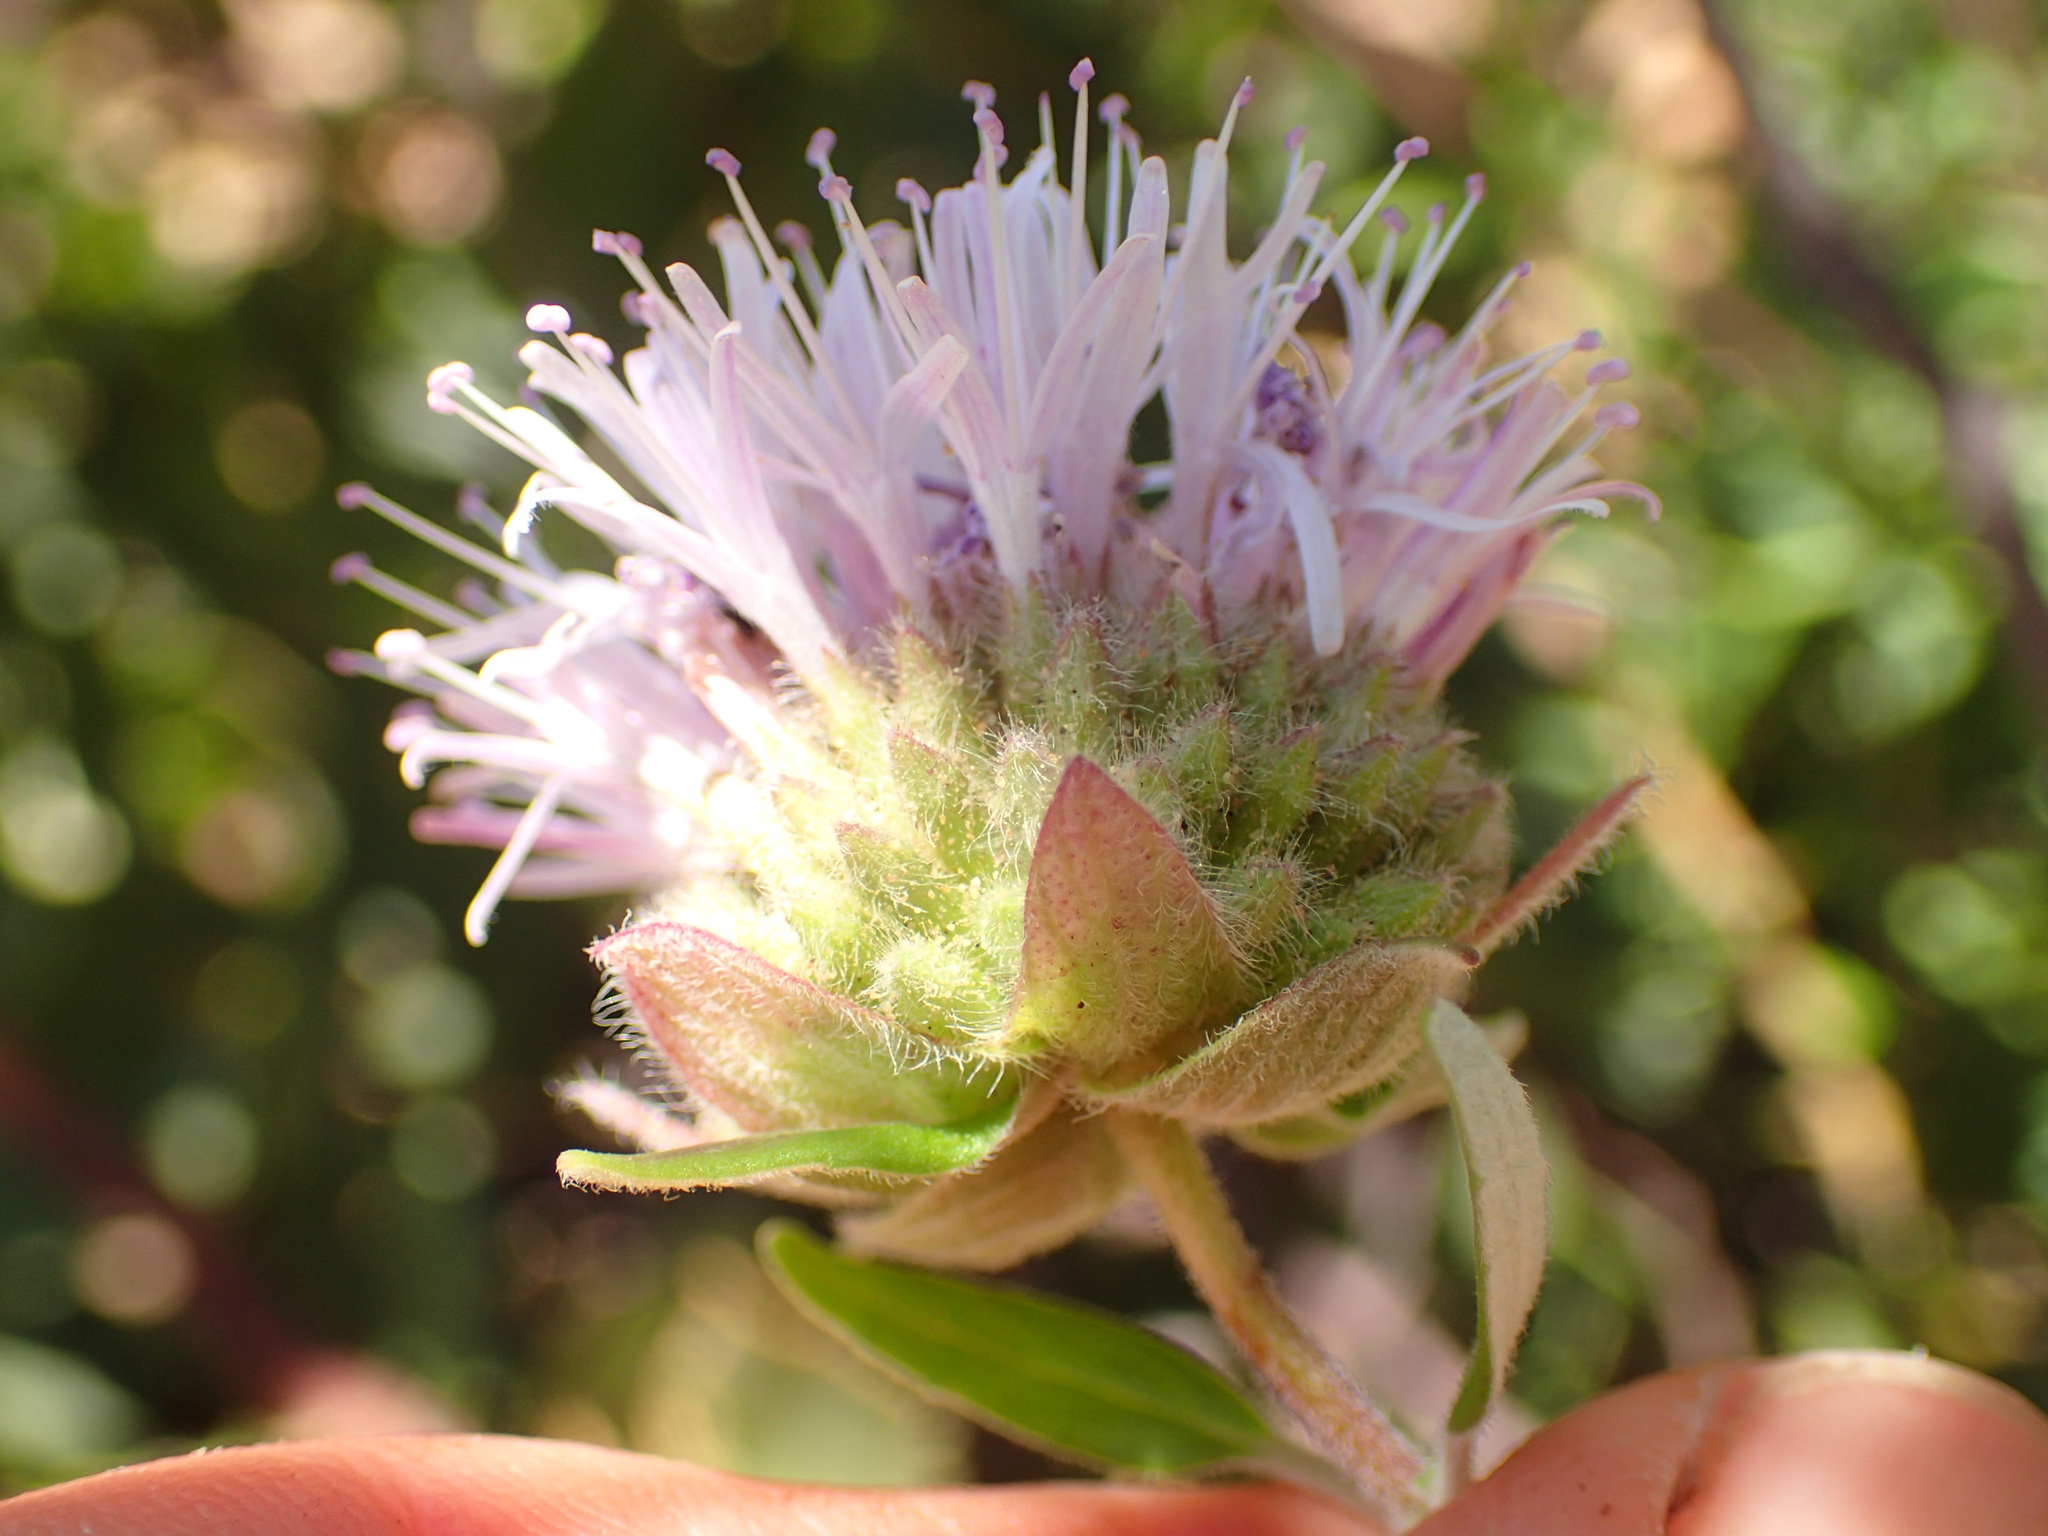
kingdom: Plantae
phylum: Tracheophyta
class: Magnoliopsida
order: Lamiales
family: Lamiaceae
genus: Monardella
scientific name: Monardella hypoleuca
